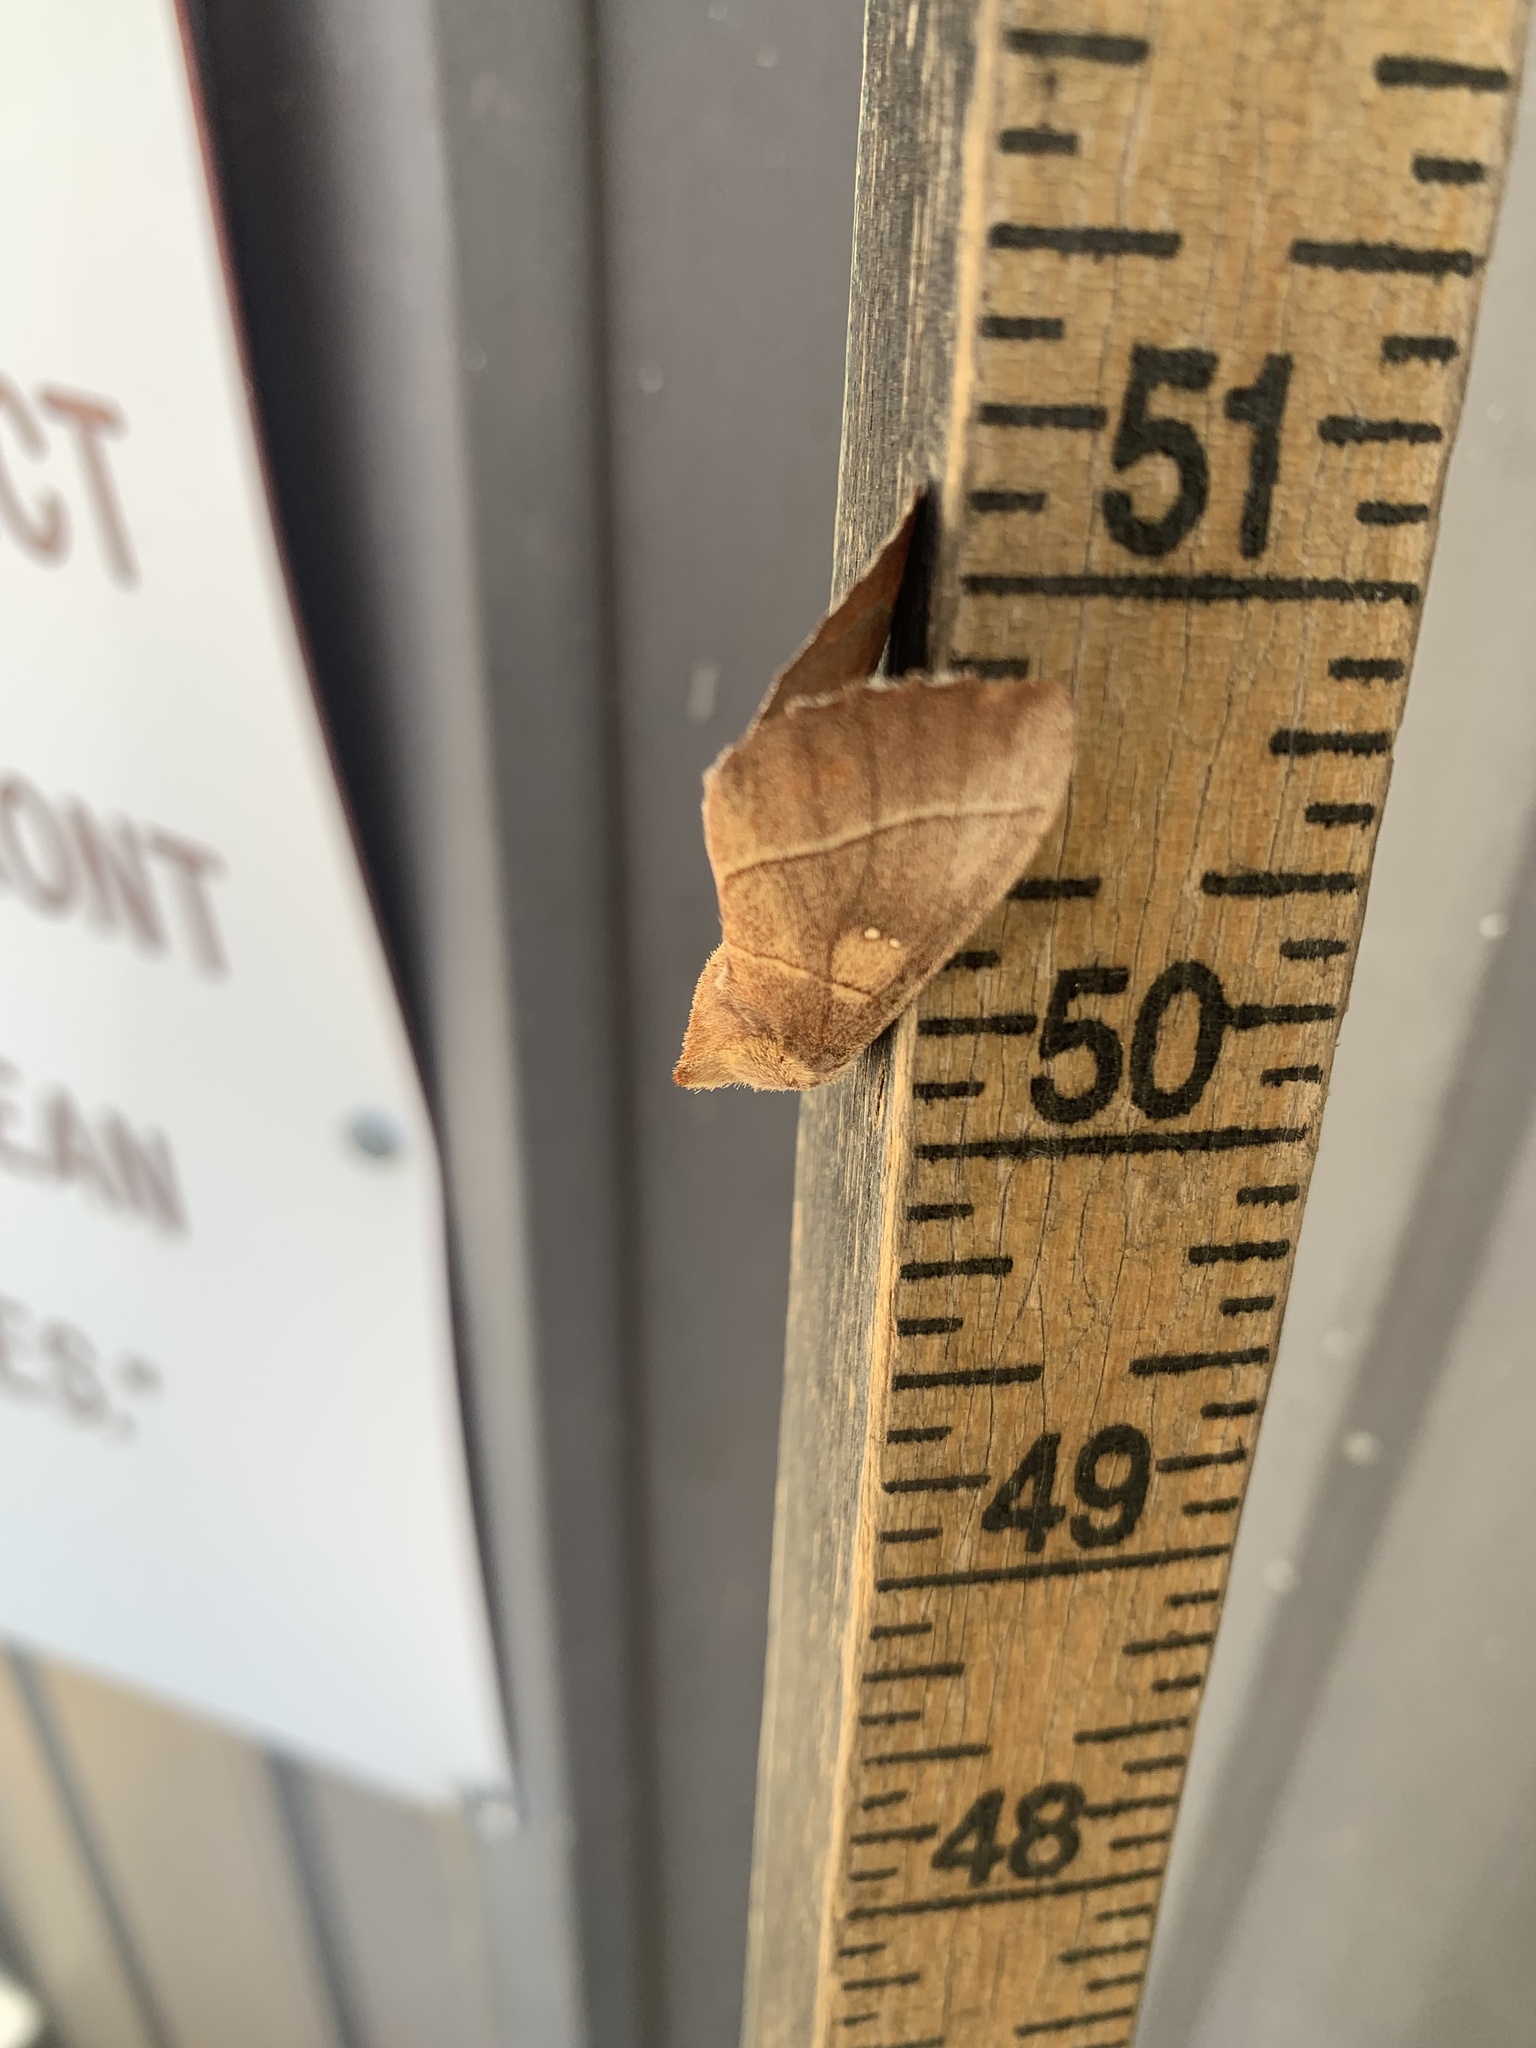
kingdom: Animalia
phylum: Arthropoda
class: Insecta
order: Lepidoptera
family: Notodontidae
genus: Nadata
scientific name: Nadata gibbosa
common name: White-dotted prominent
